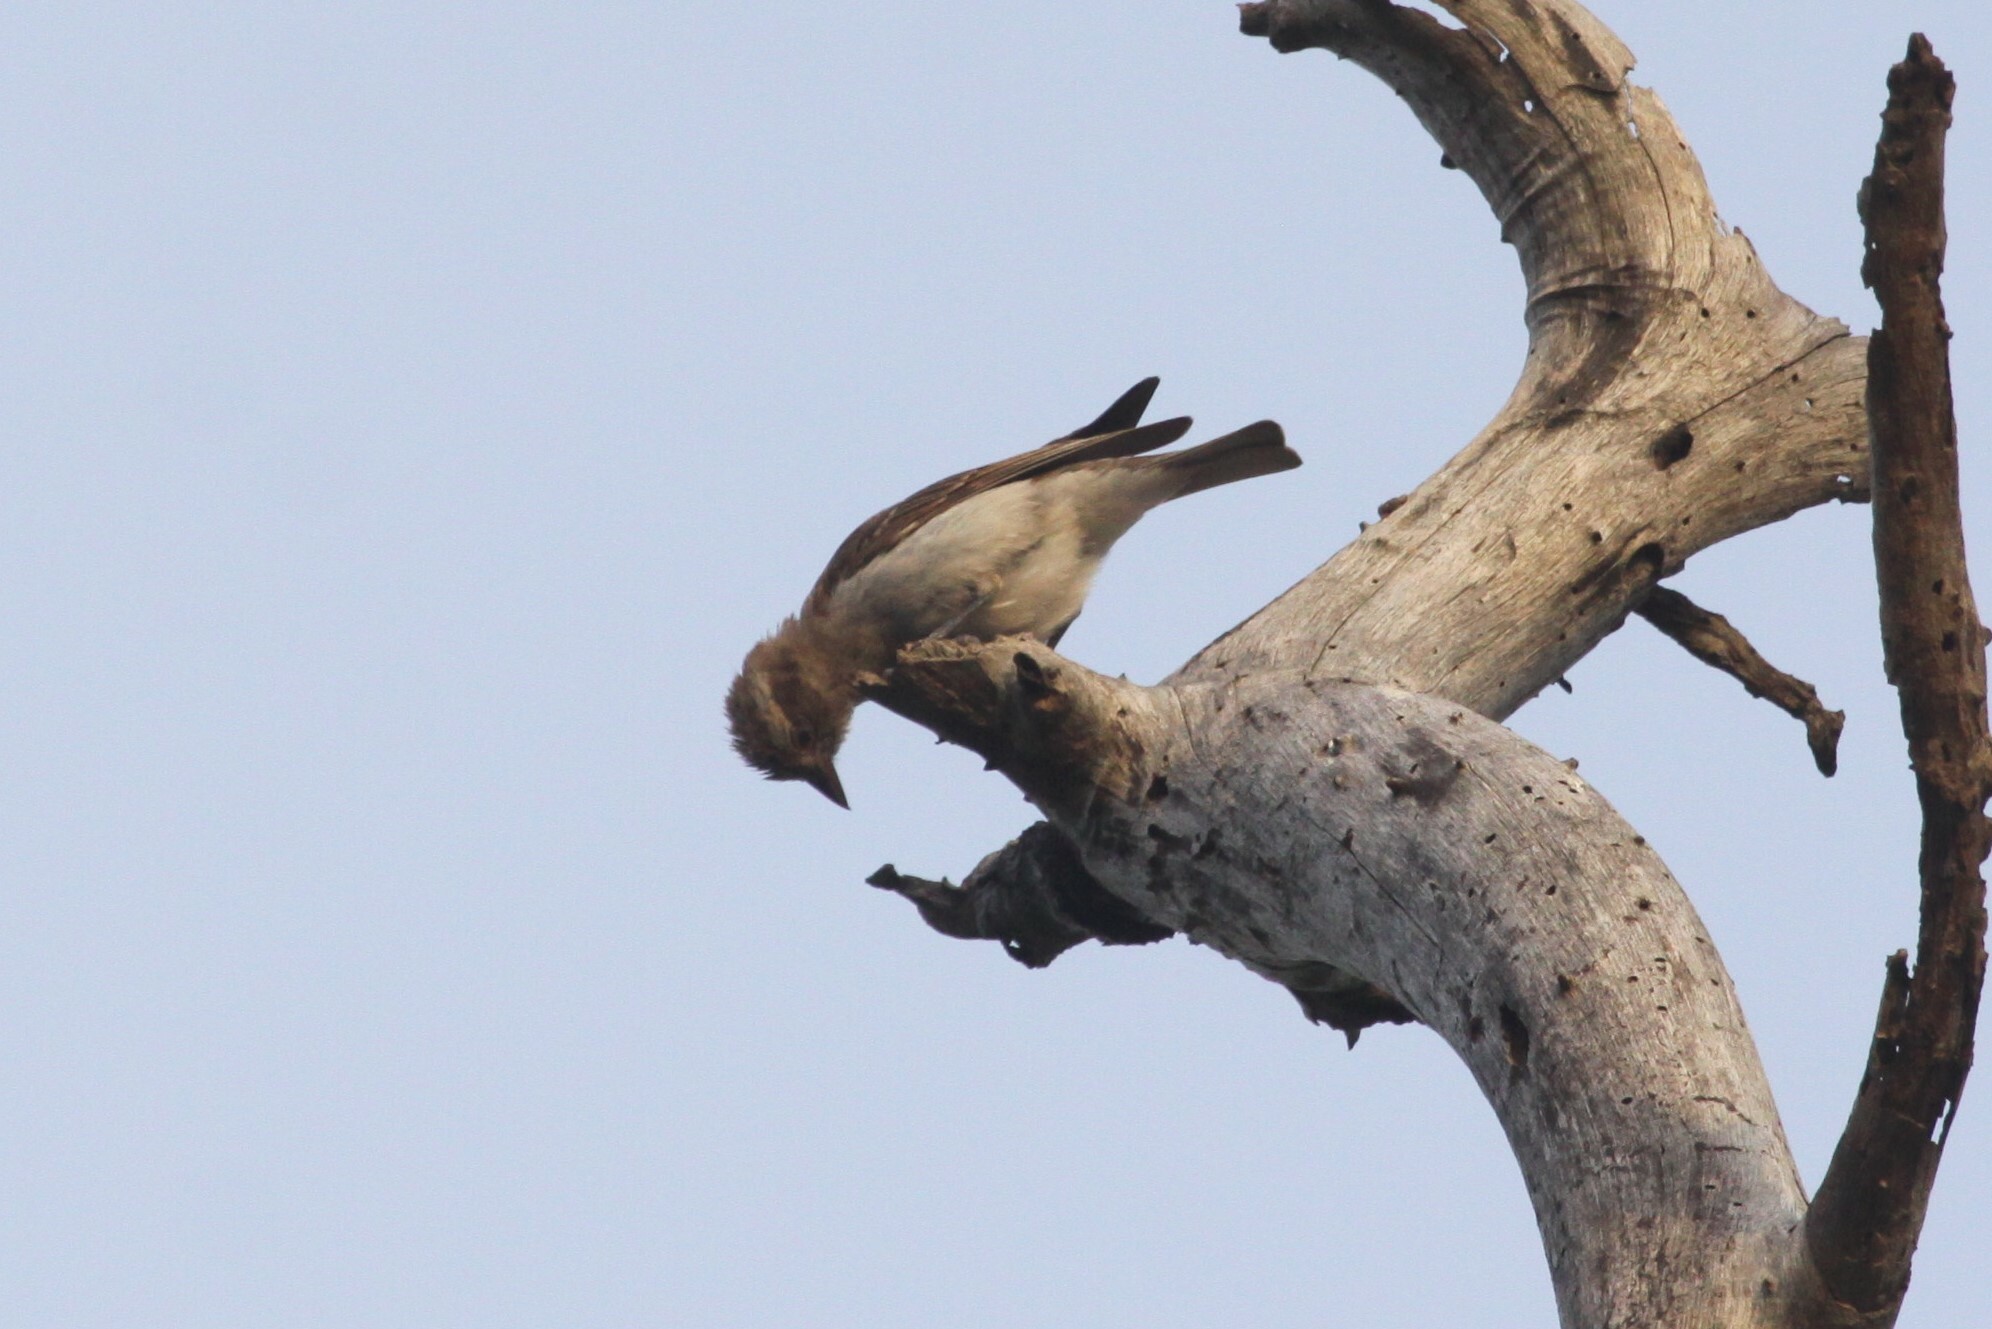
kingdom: Animalia
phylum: Chordata
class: Aves
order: Passeriformes
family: Passeridae
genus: Gymnoris
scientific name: Gymnoris superciliaris
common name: Yellow-throated petronia
